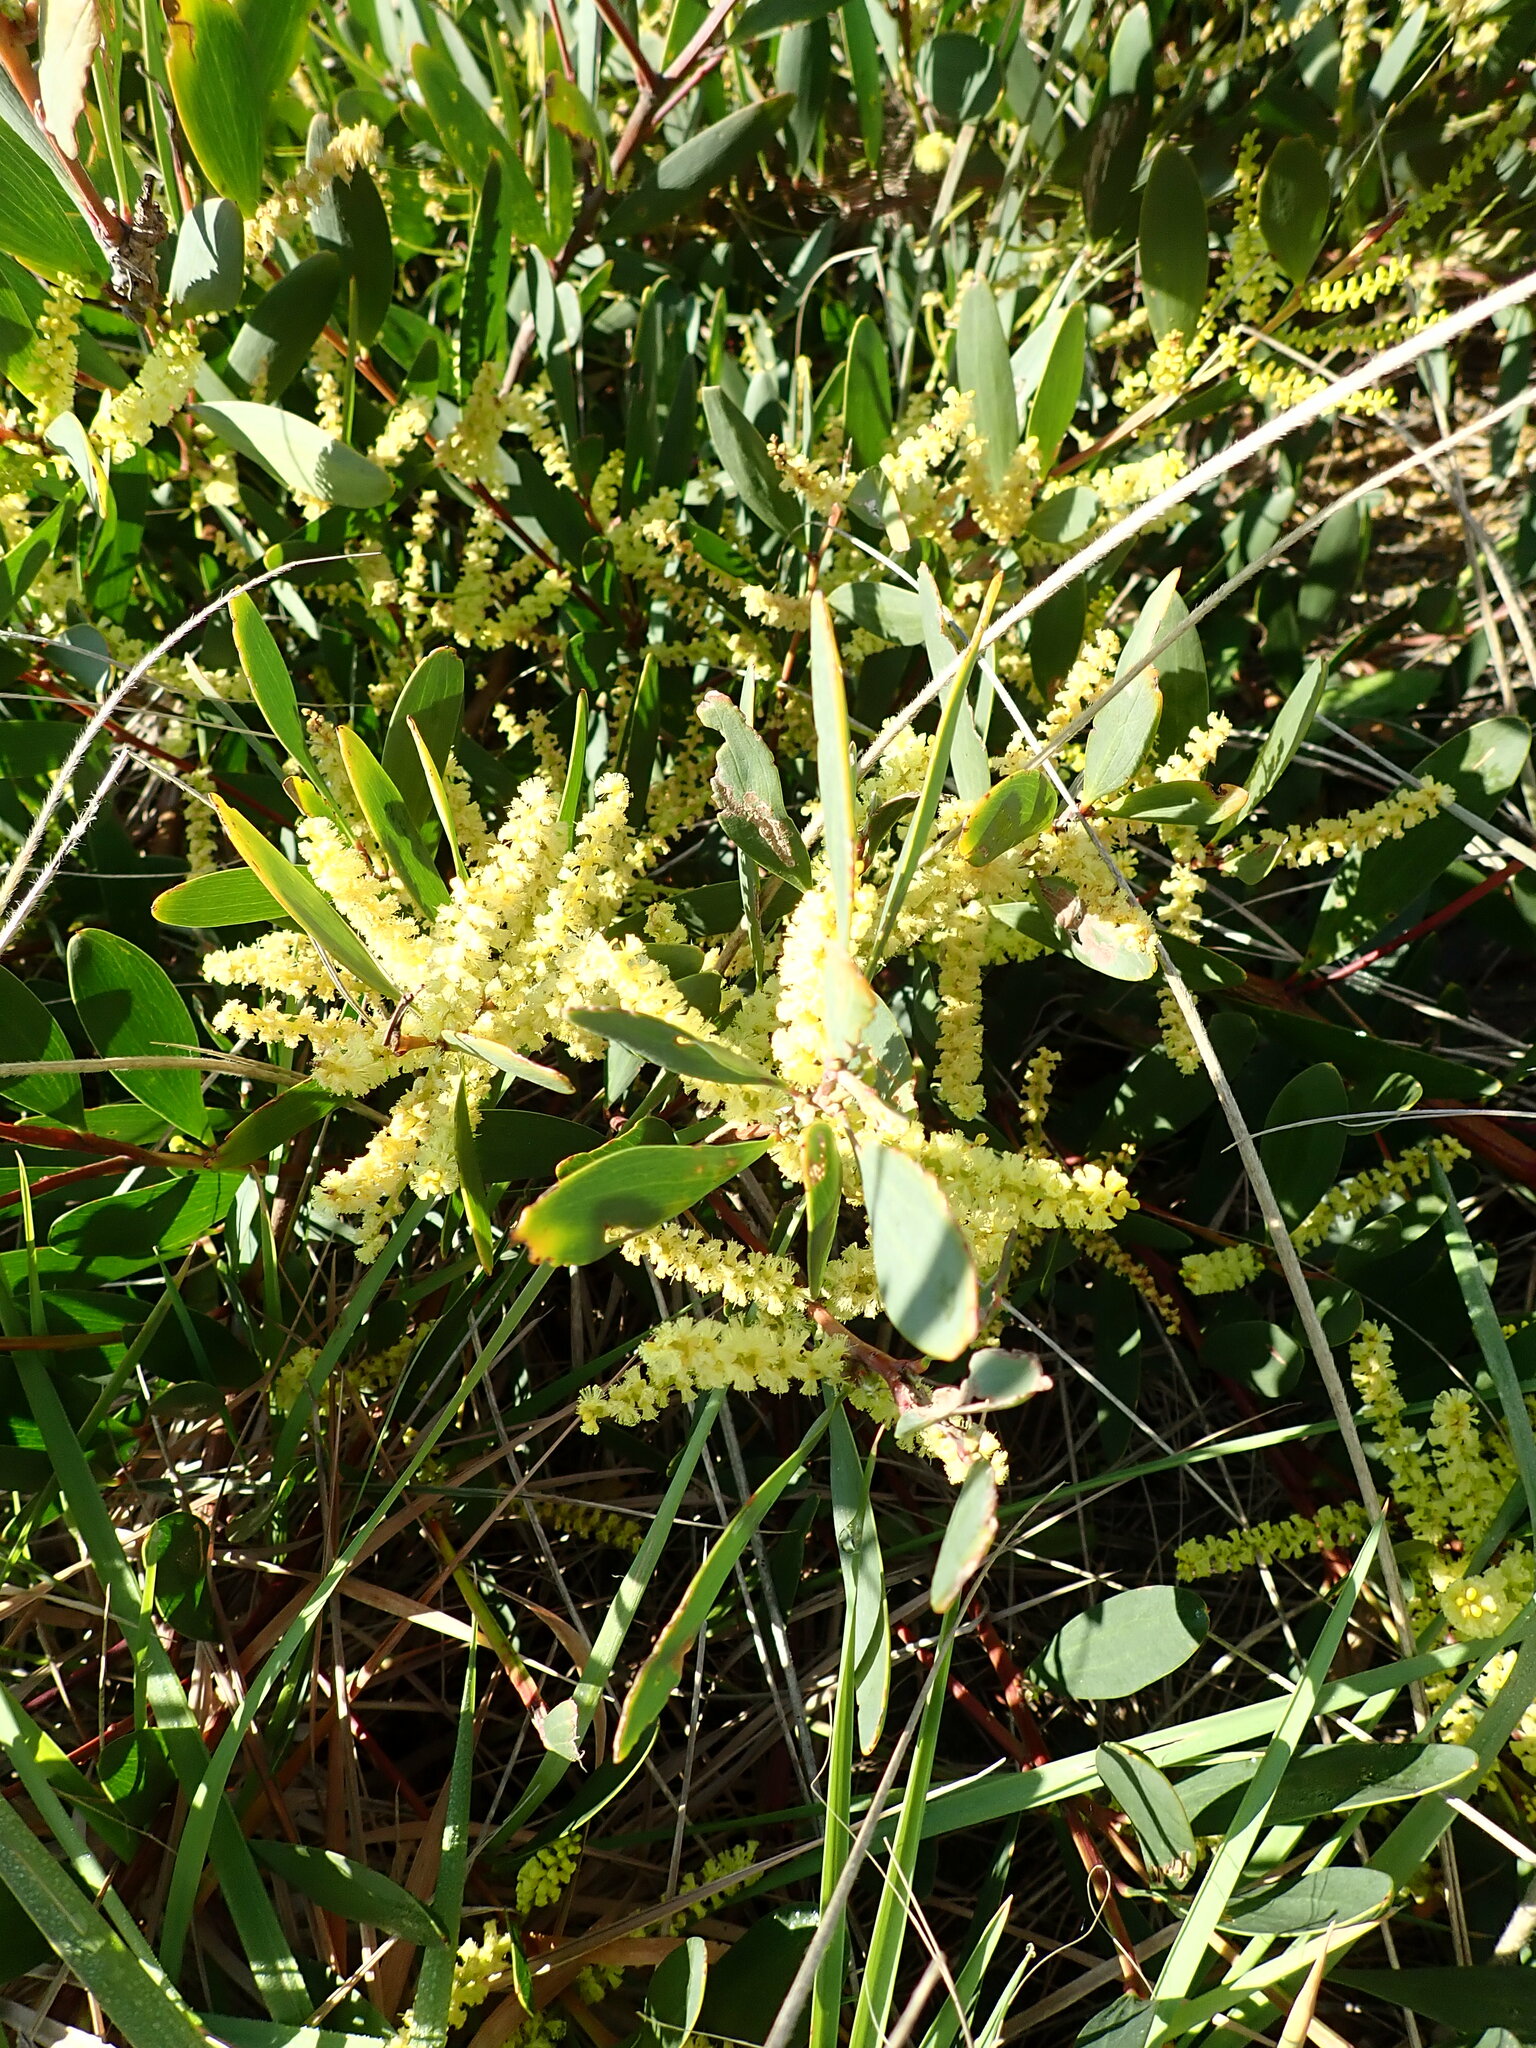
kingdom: Plantae
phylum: Tracheophyta
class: Magnoliopsida
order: Fabales
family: Fabaceae
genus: Acacia
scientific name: Acacia longifolia
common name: Sydney golden wattle
